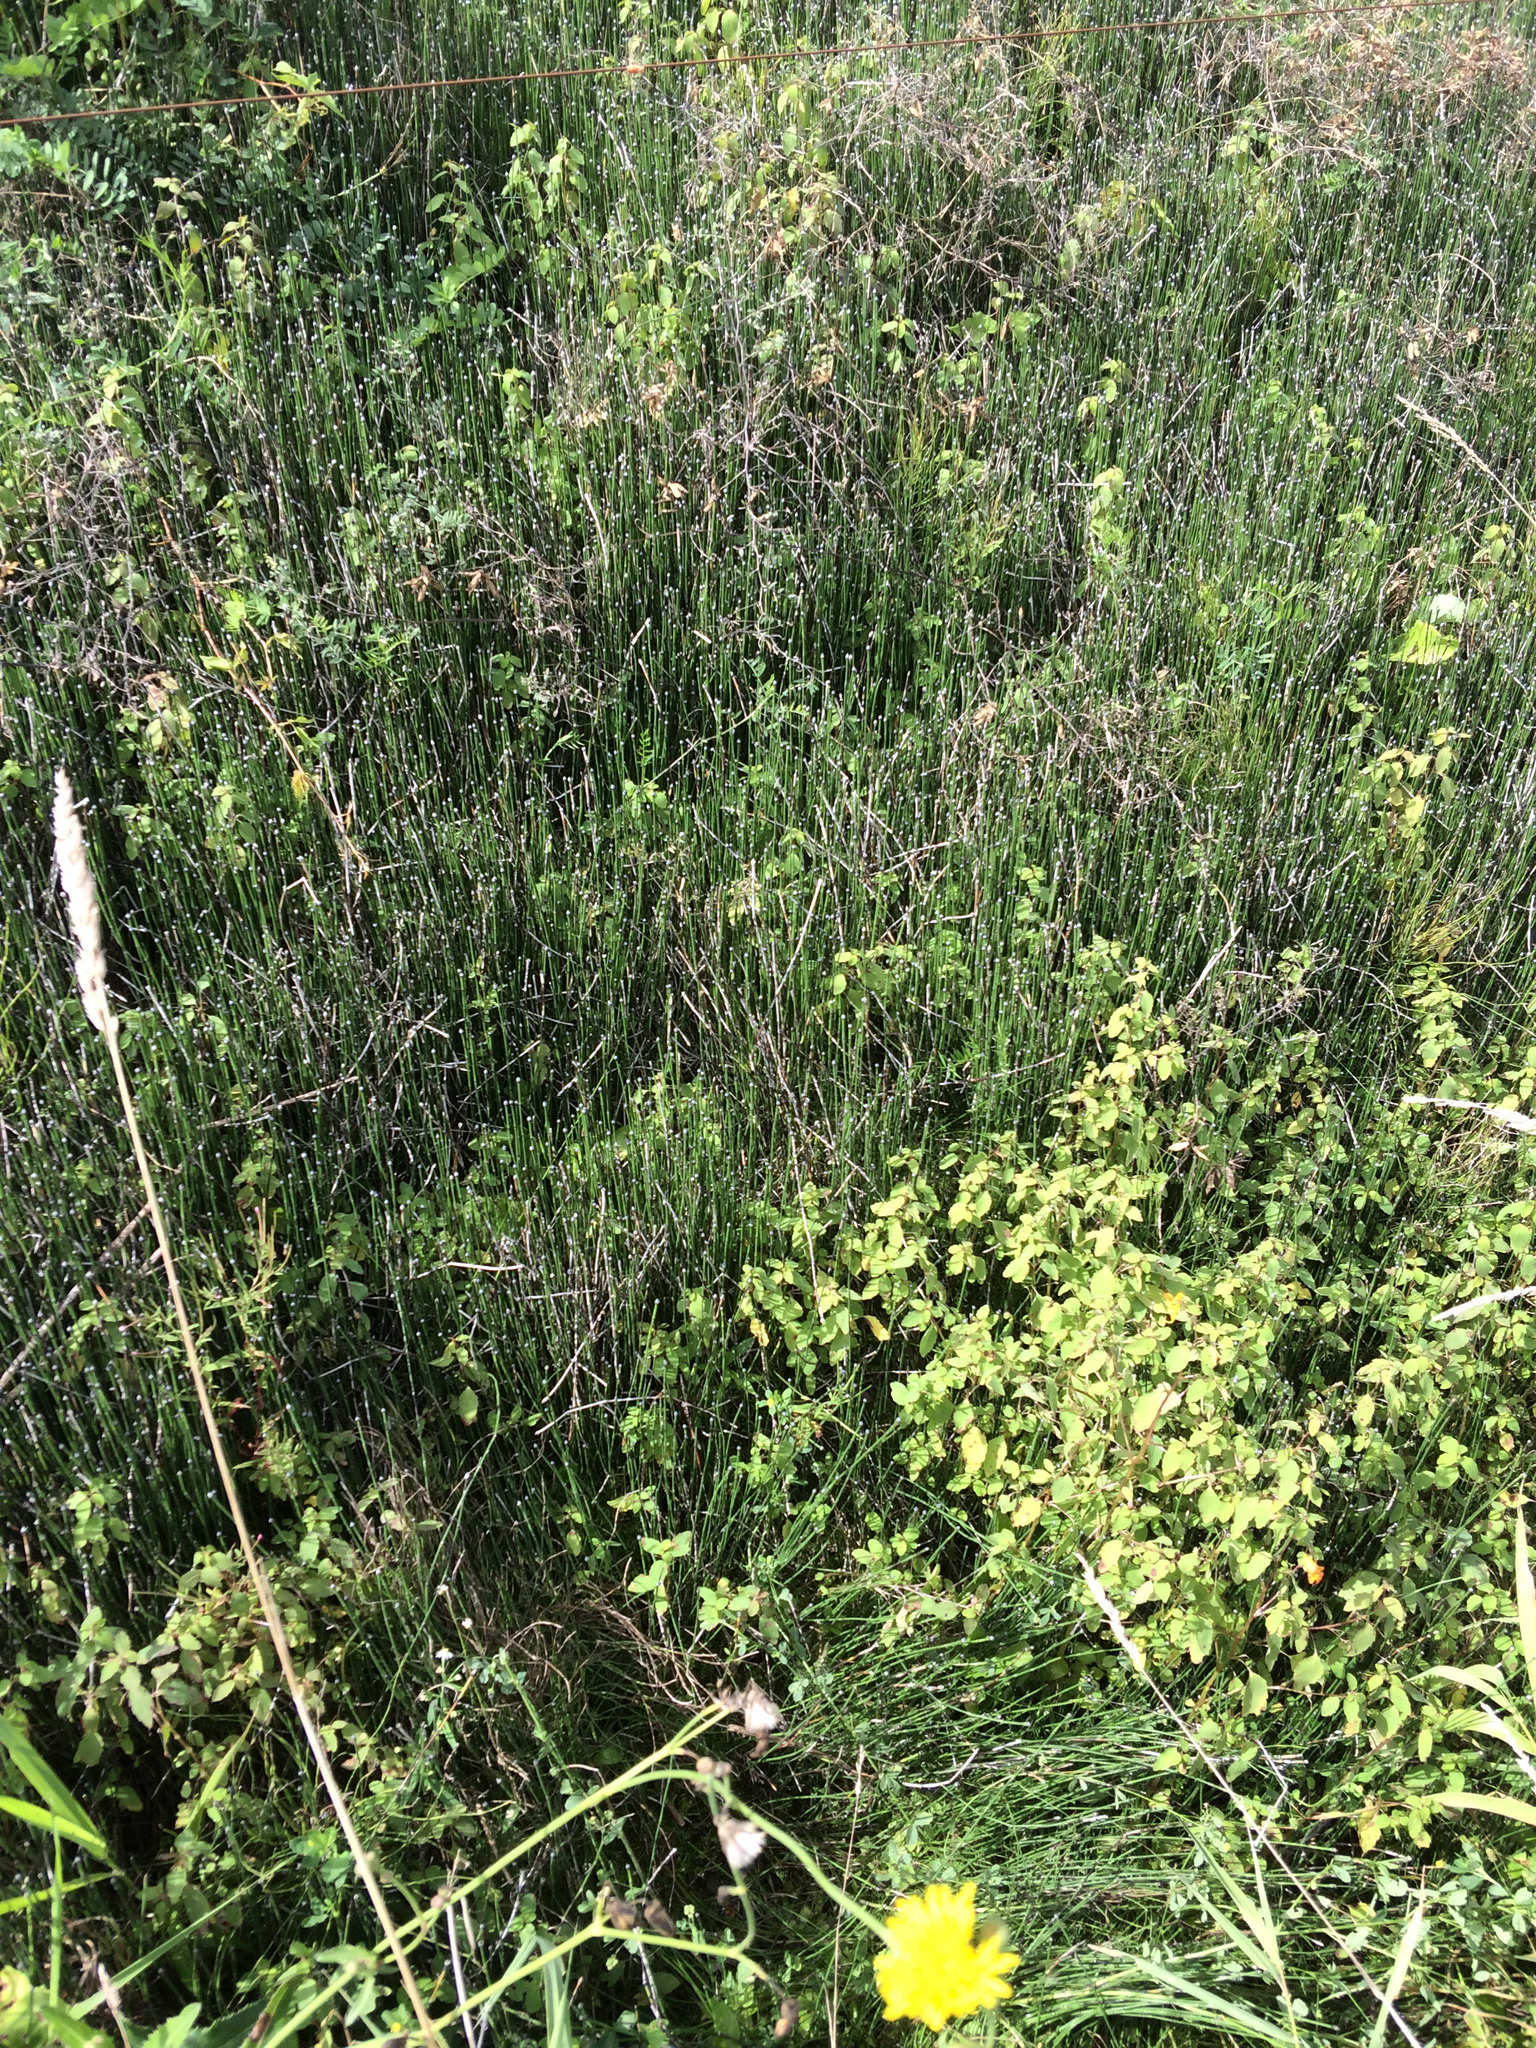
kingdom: Plantae
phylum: Tracheophyta
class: Polypodiopsida
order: Equisetales
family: Equisetaceae
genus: Equisetum
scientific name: Equisetum variegatum
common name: Variegated horsetail
